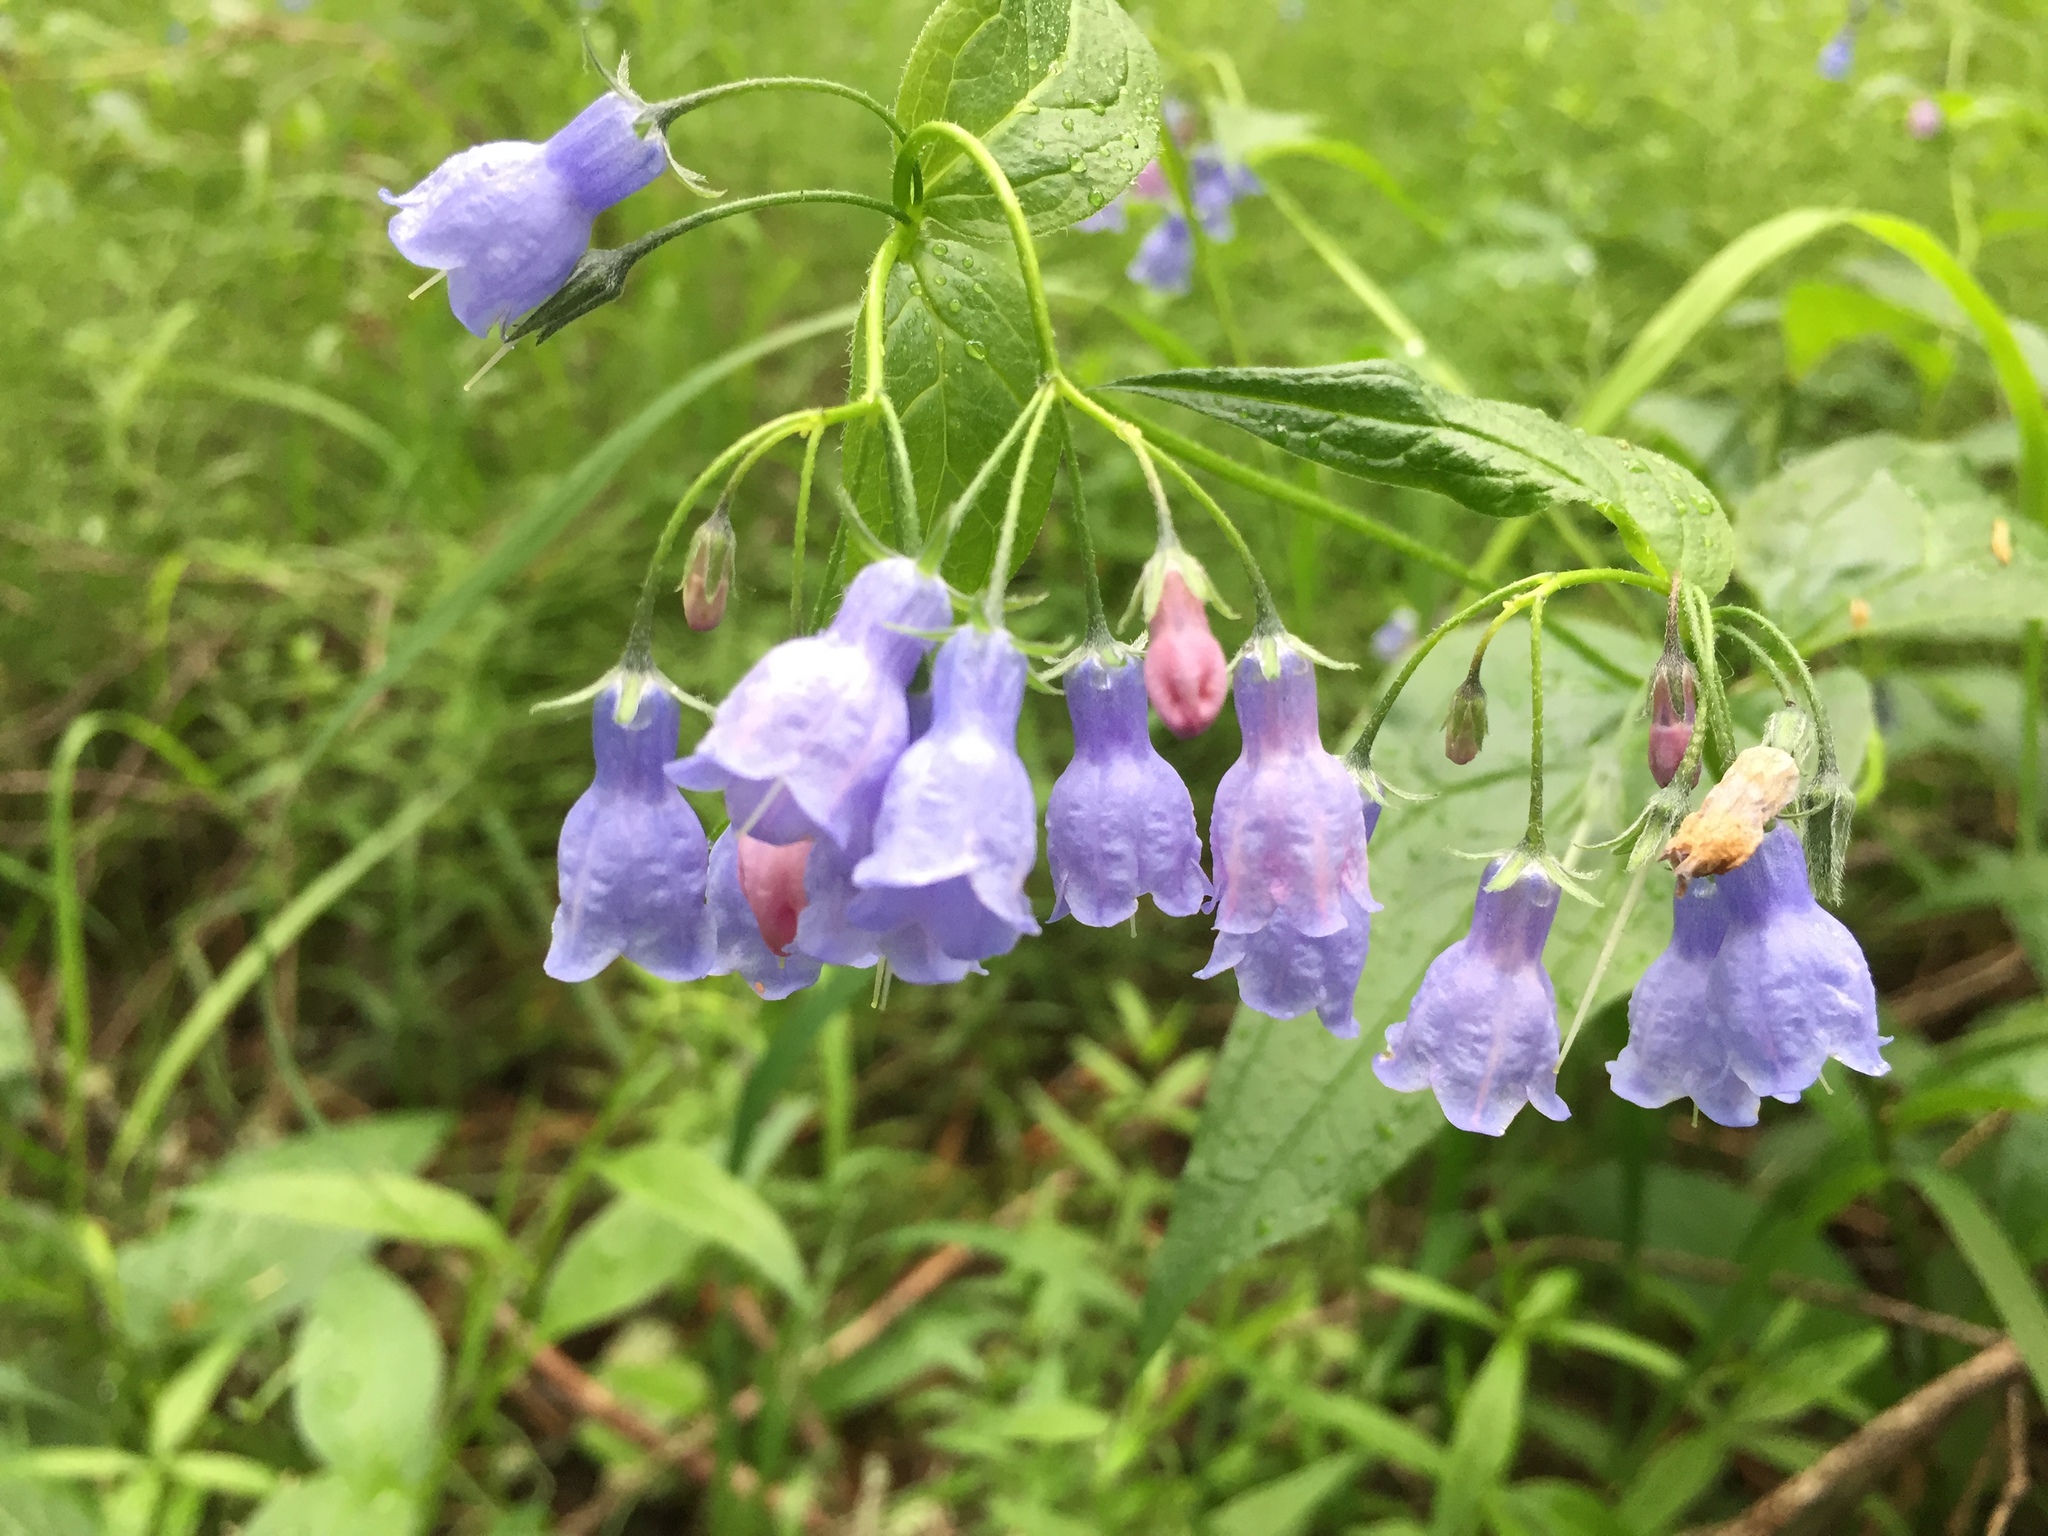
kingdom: Plantae
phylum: Tracheophyta
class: Magnoliopsida
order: Boraginales
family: Boraginaceae
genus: Mertensia
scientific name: Mertensia paniculata
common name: Panicled bluebells
